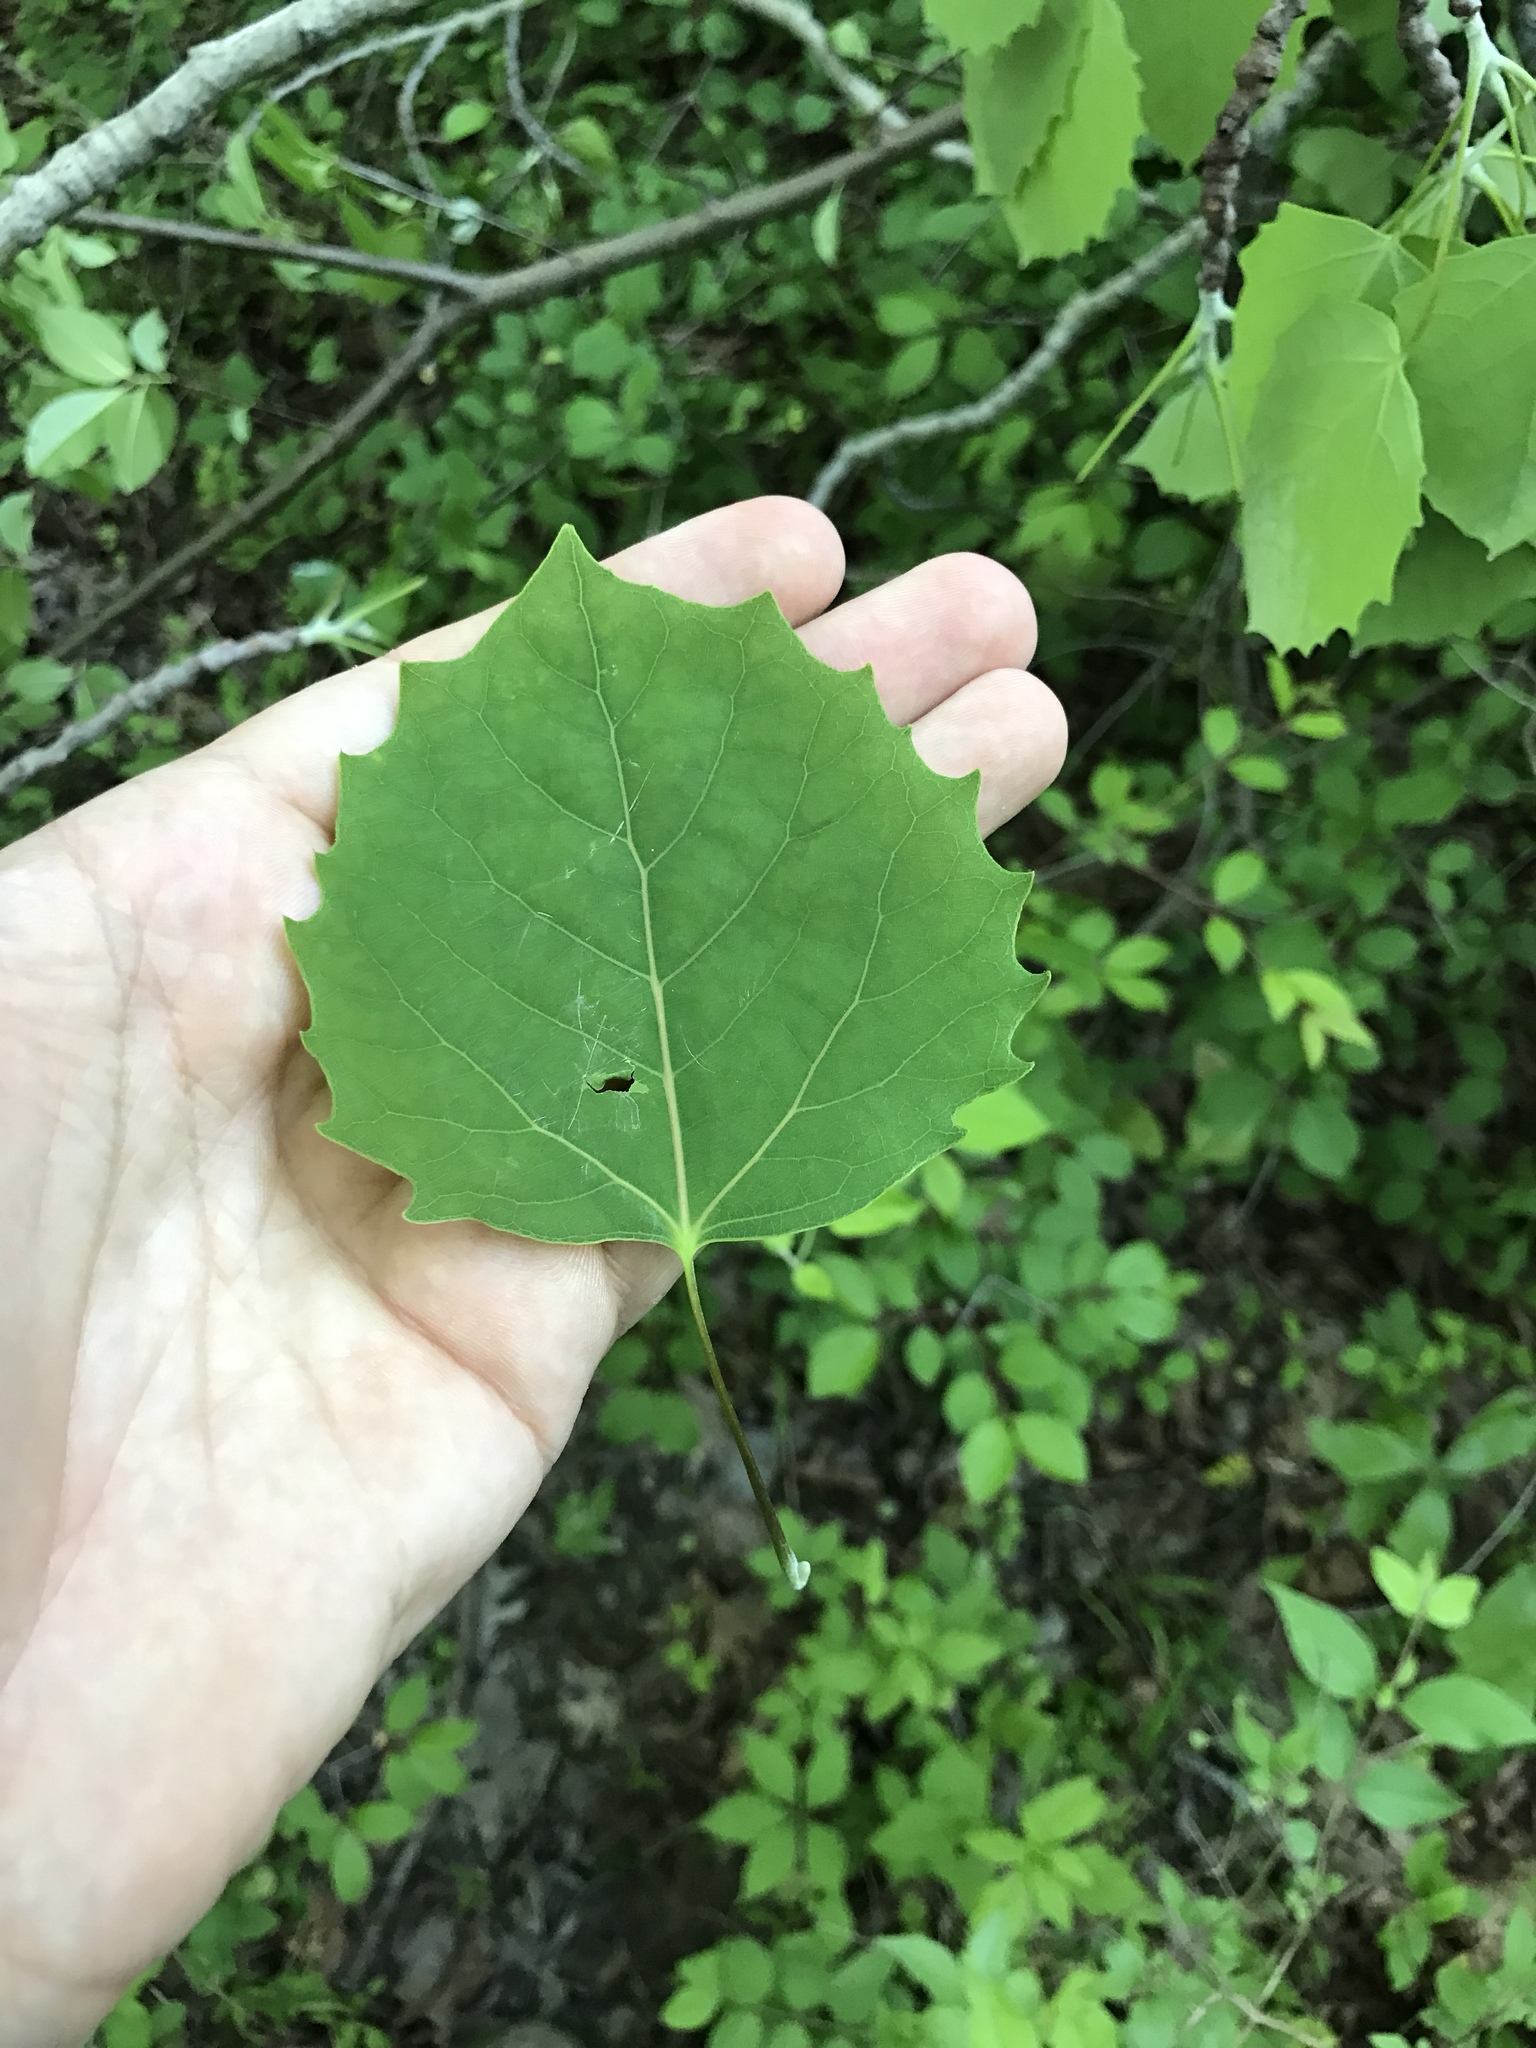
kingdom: Plantae
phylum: Tracheophyta
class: Magnoliopsida
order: Malpighiales
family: Salicaceae
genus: Populus
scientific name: Populus grandidentata
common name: Bigtooth aspen
